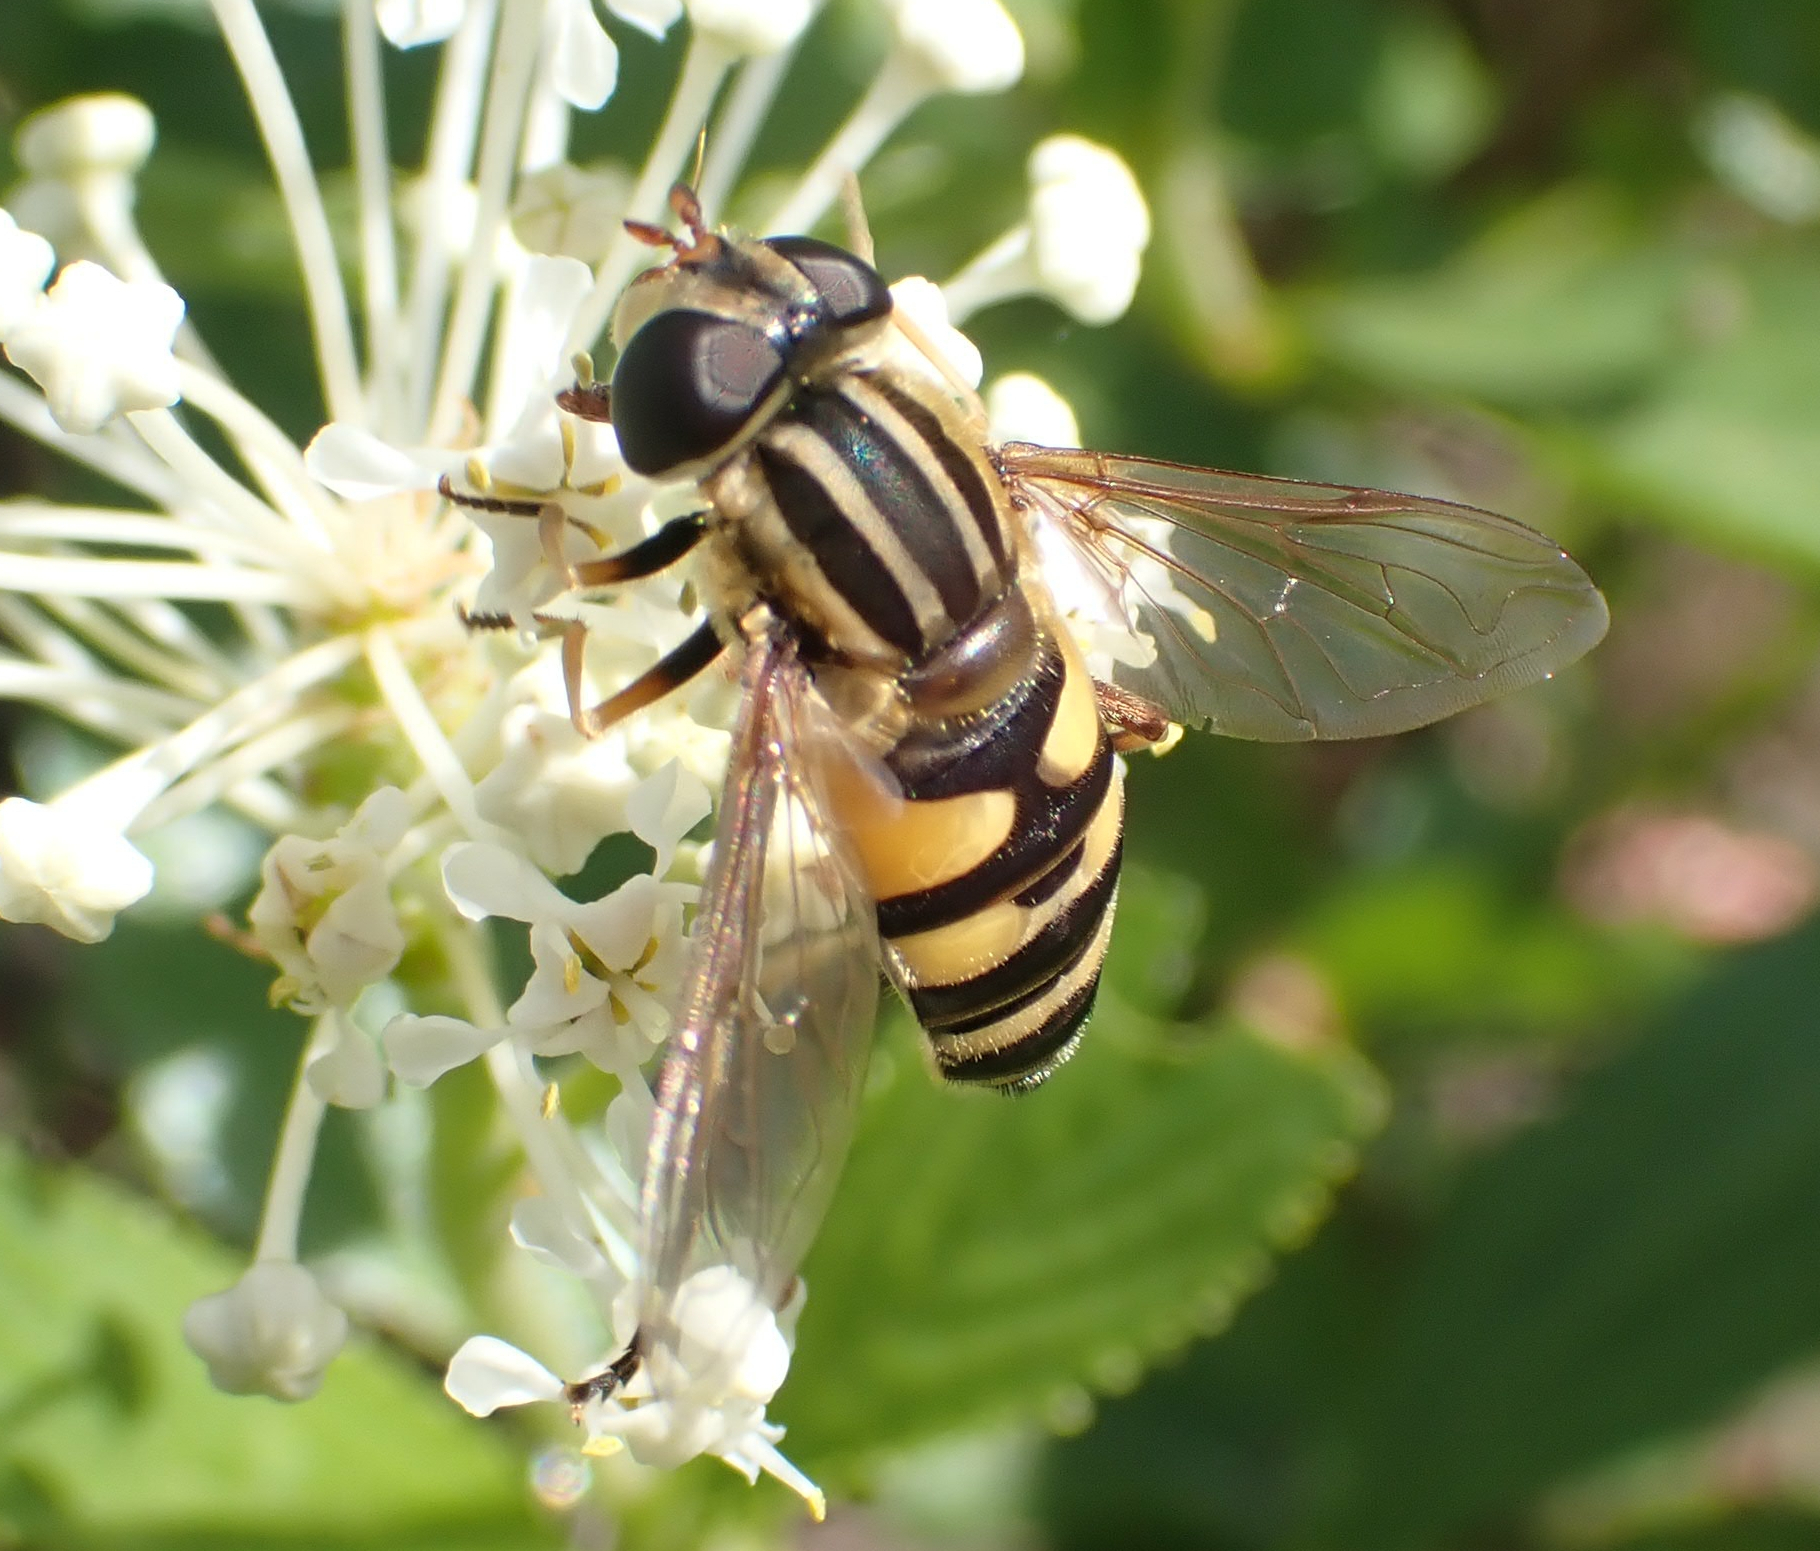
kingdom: Animalia
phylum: Arthropoda
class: Insecta
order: Diptera
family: Syrphidae
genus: Helophilus
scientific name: Helophilus fasciatus
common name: Narrow-headed marsh fly
